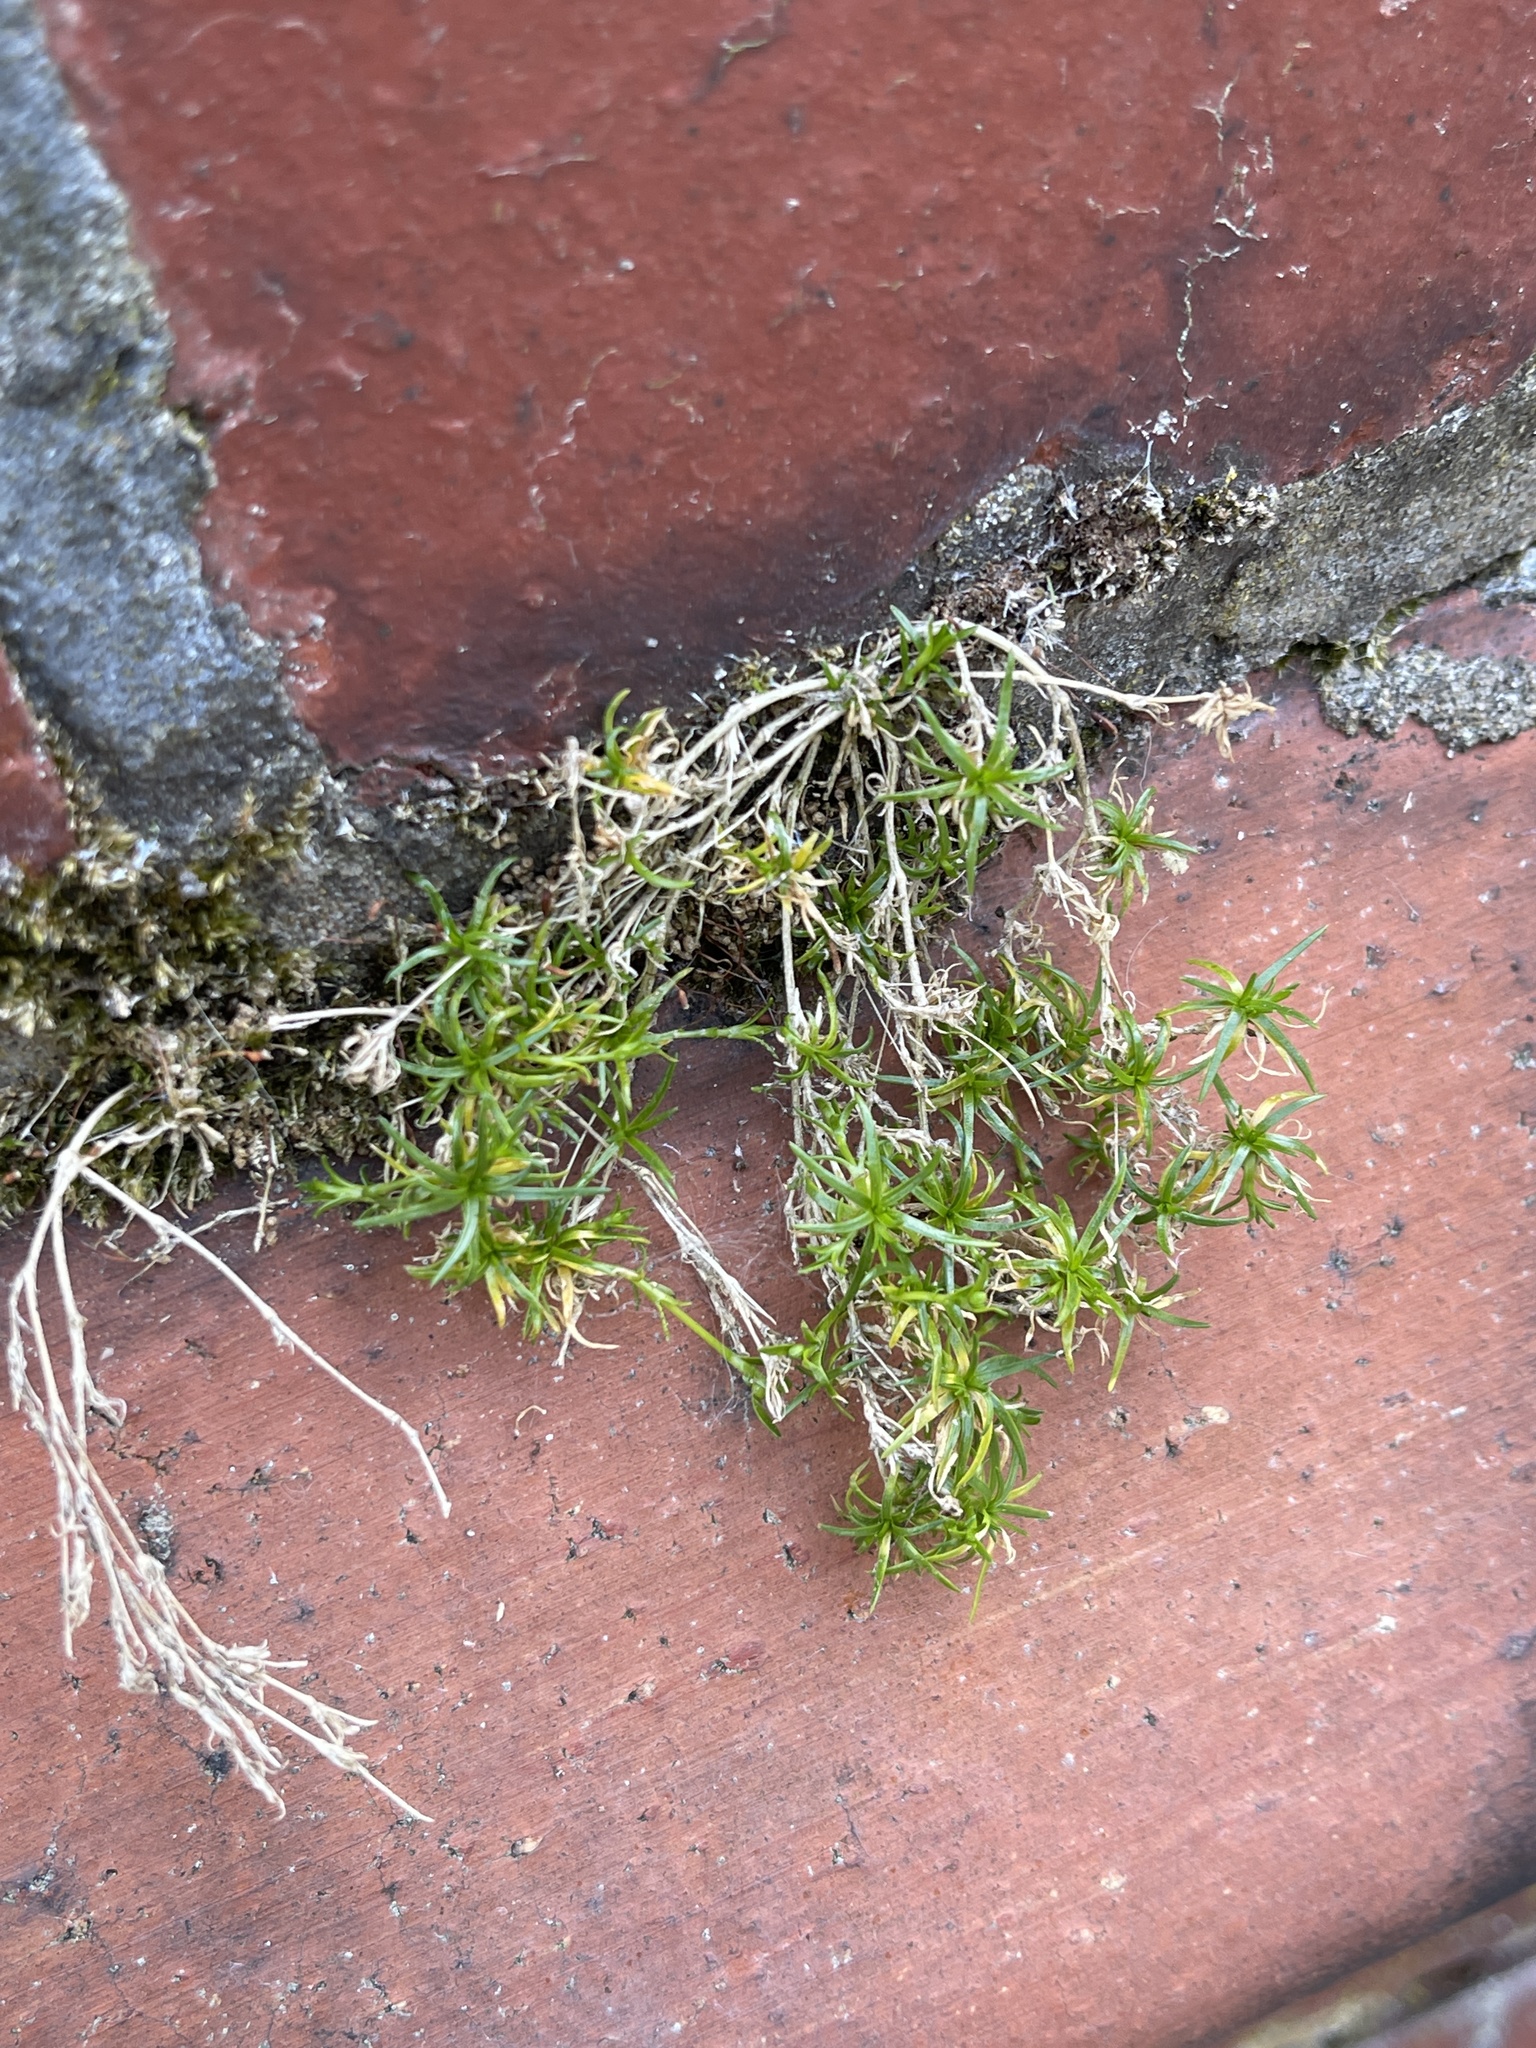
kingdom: Plantae
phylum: Tracheophyta
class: Magnoliopsida
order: Caryophyllales
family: Caryophyllaceae
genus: Sagina
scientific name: Sagina procumbens
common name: Procumbent pearlwort
